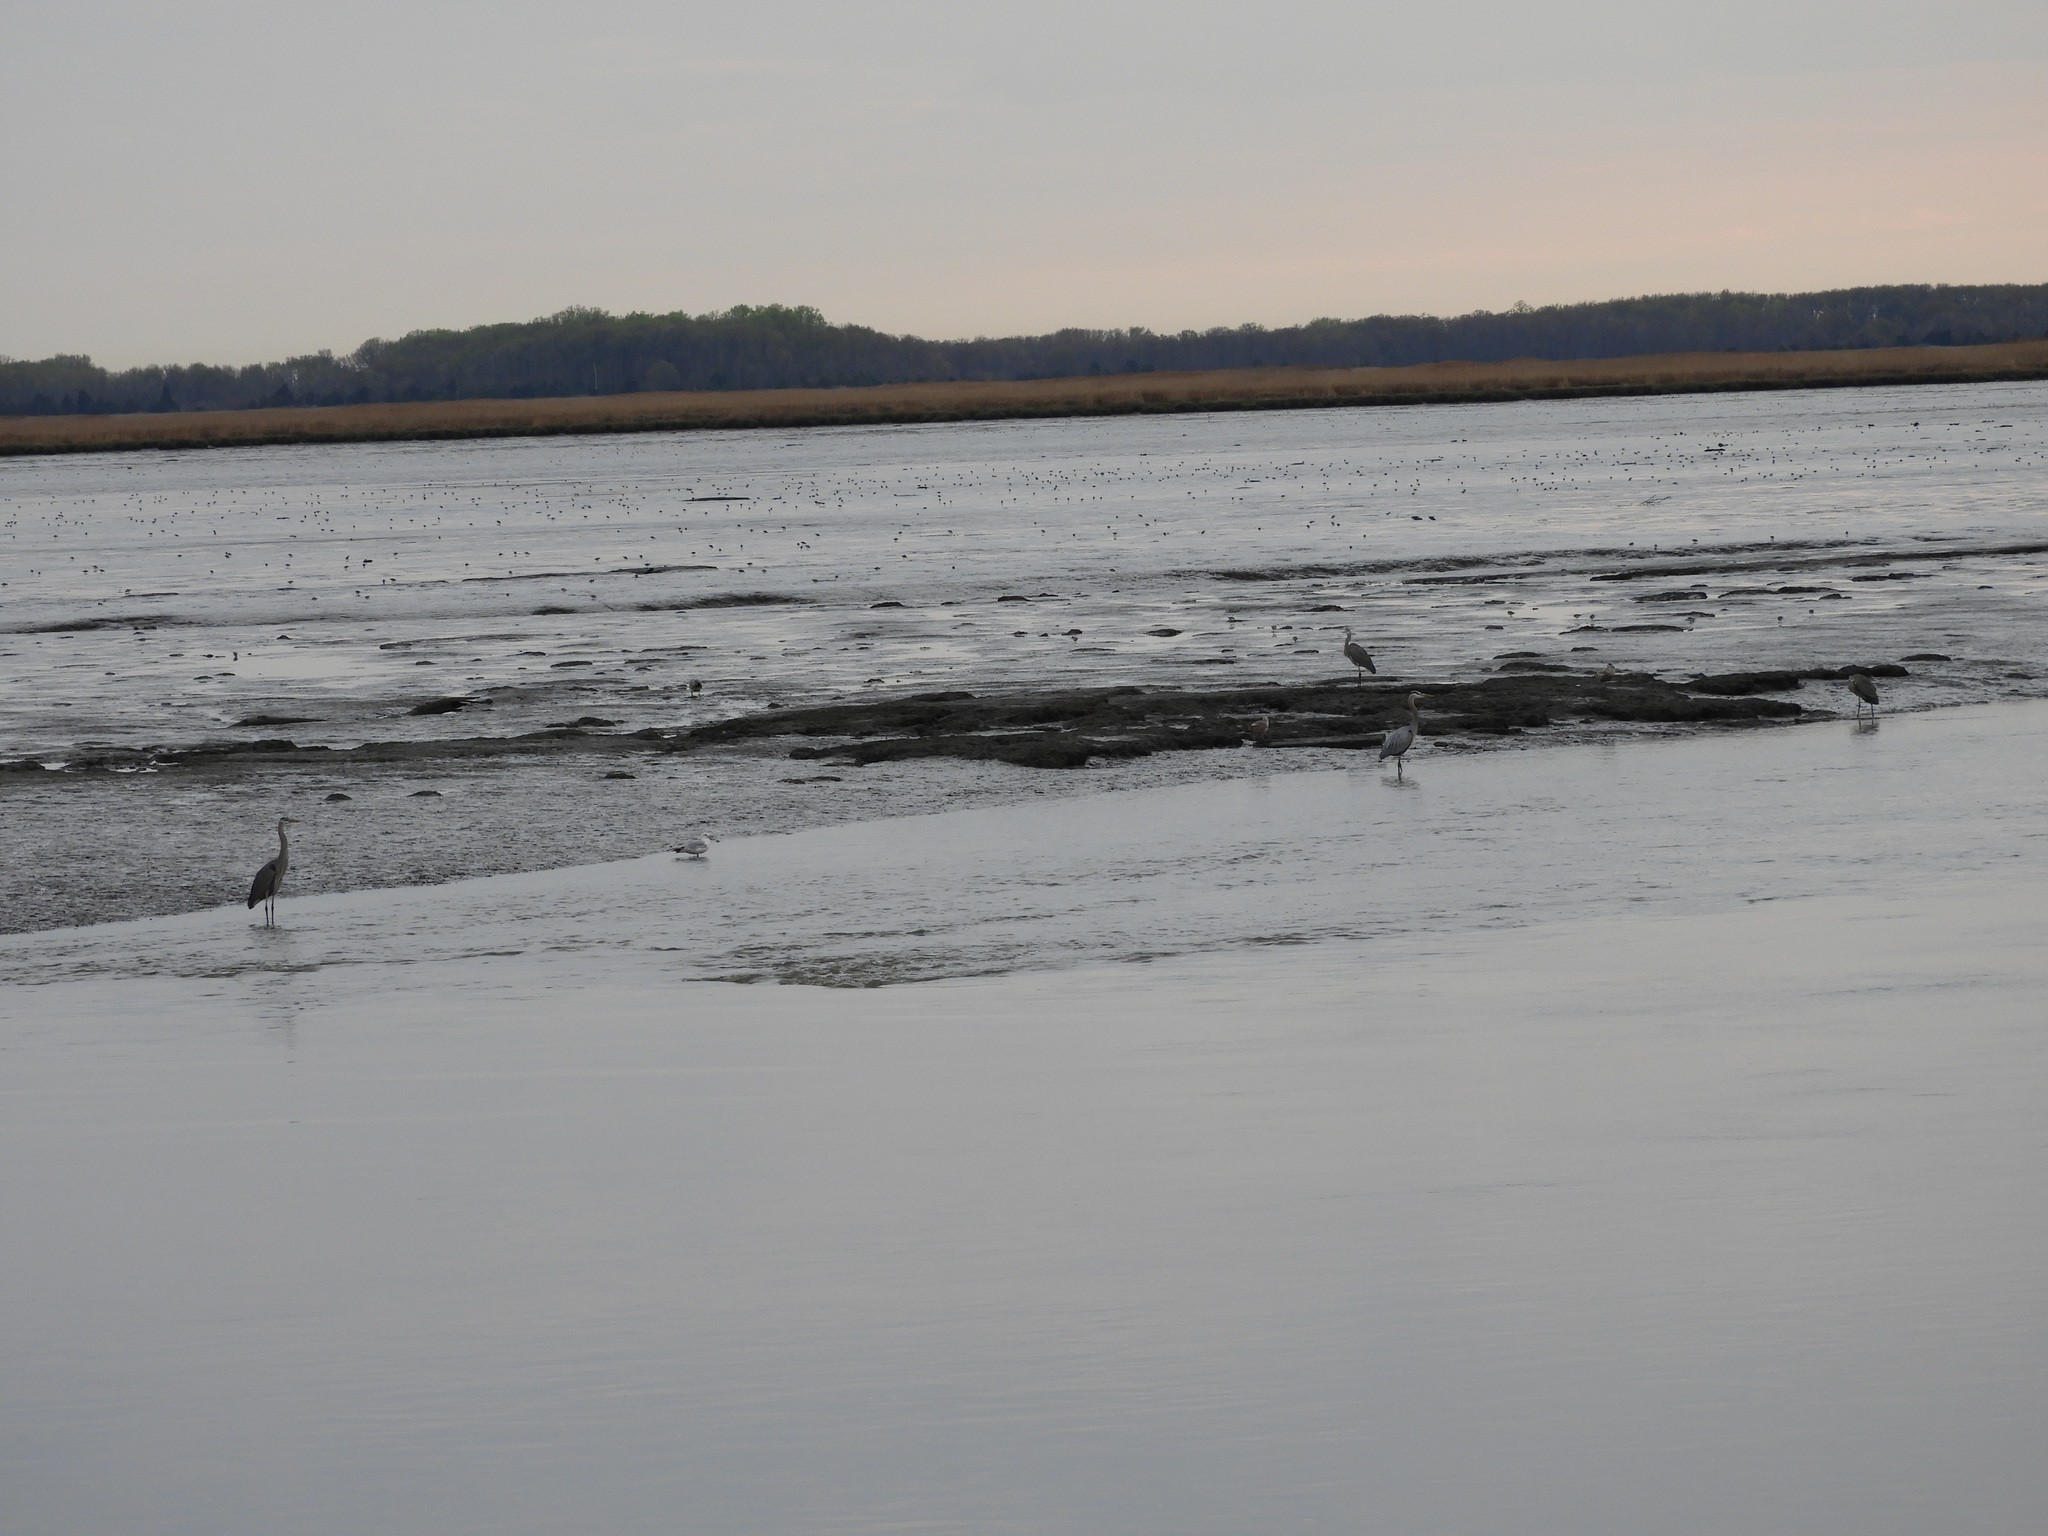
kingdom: Animalia
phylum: Chordata
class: Aves
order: Pelecaniformes
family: Ardeidae
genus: Ardea
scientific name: Ardea herodias
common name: Great blue heron
